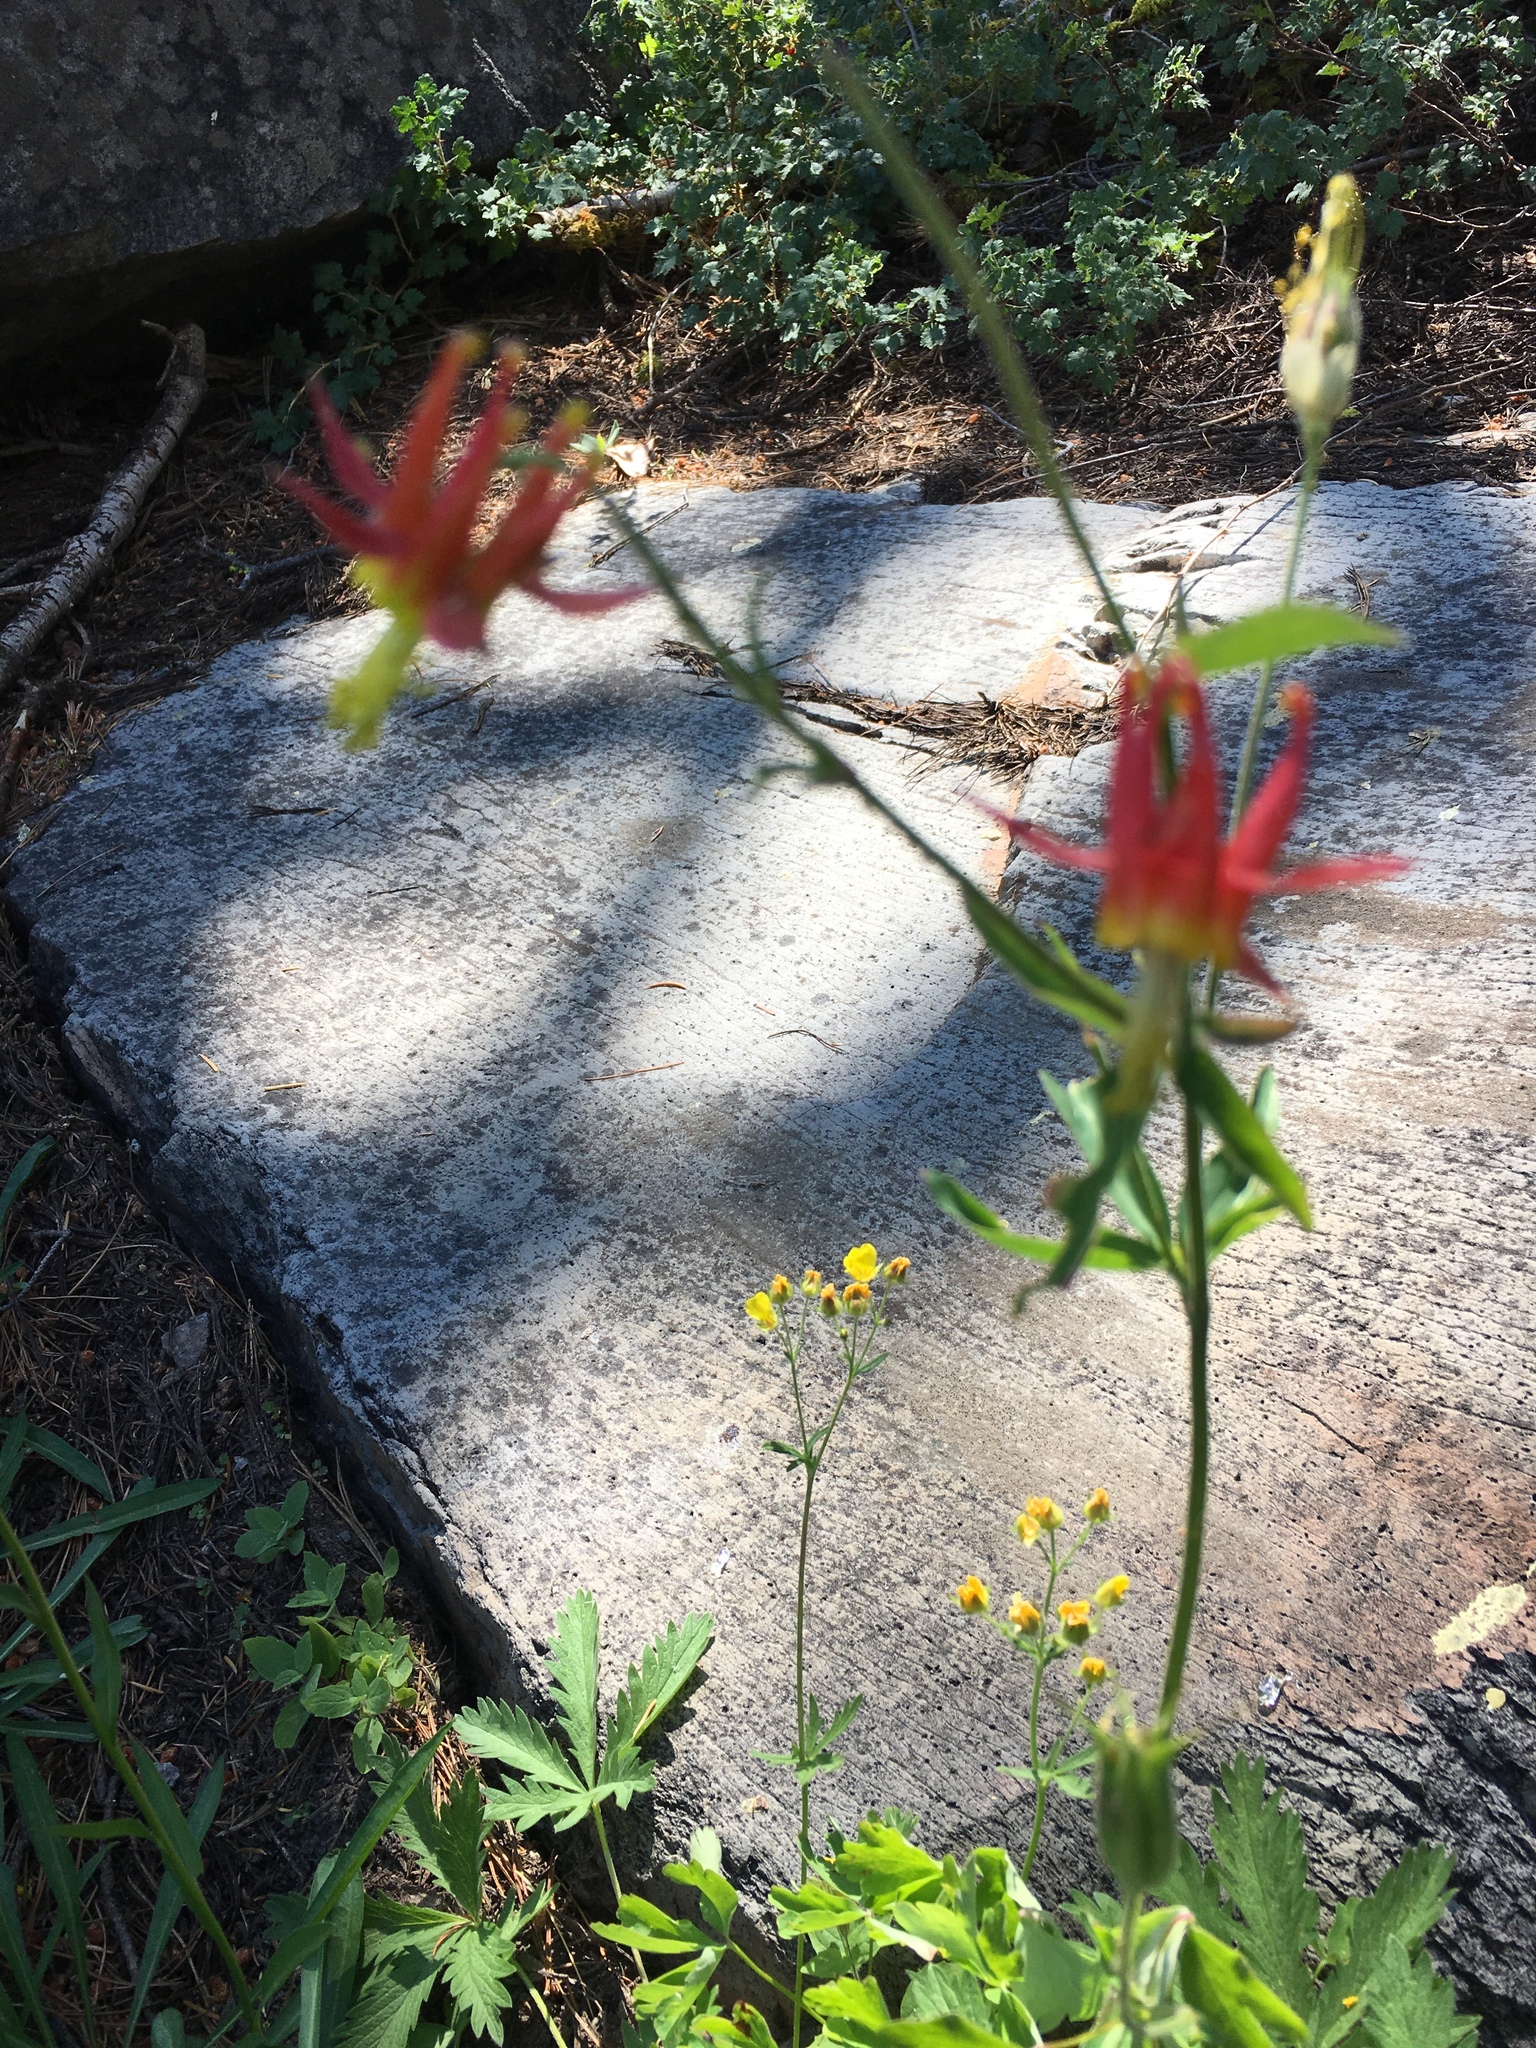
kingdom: Plantae
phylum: Tracheophyta
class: Magnoliopsida
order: Ranunculales
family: Ranunculaceae
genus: Aquilegia
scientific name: Aquilegia formosa
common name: Sitka columbine
